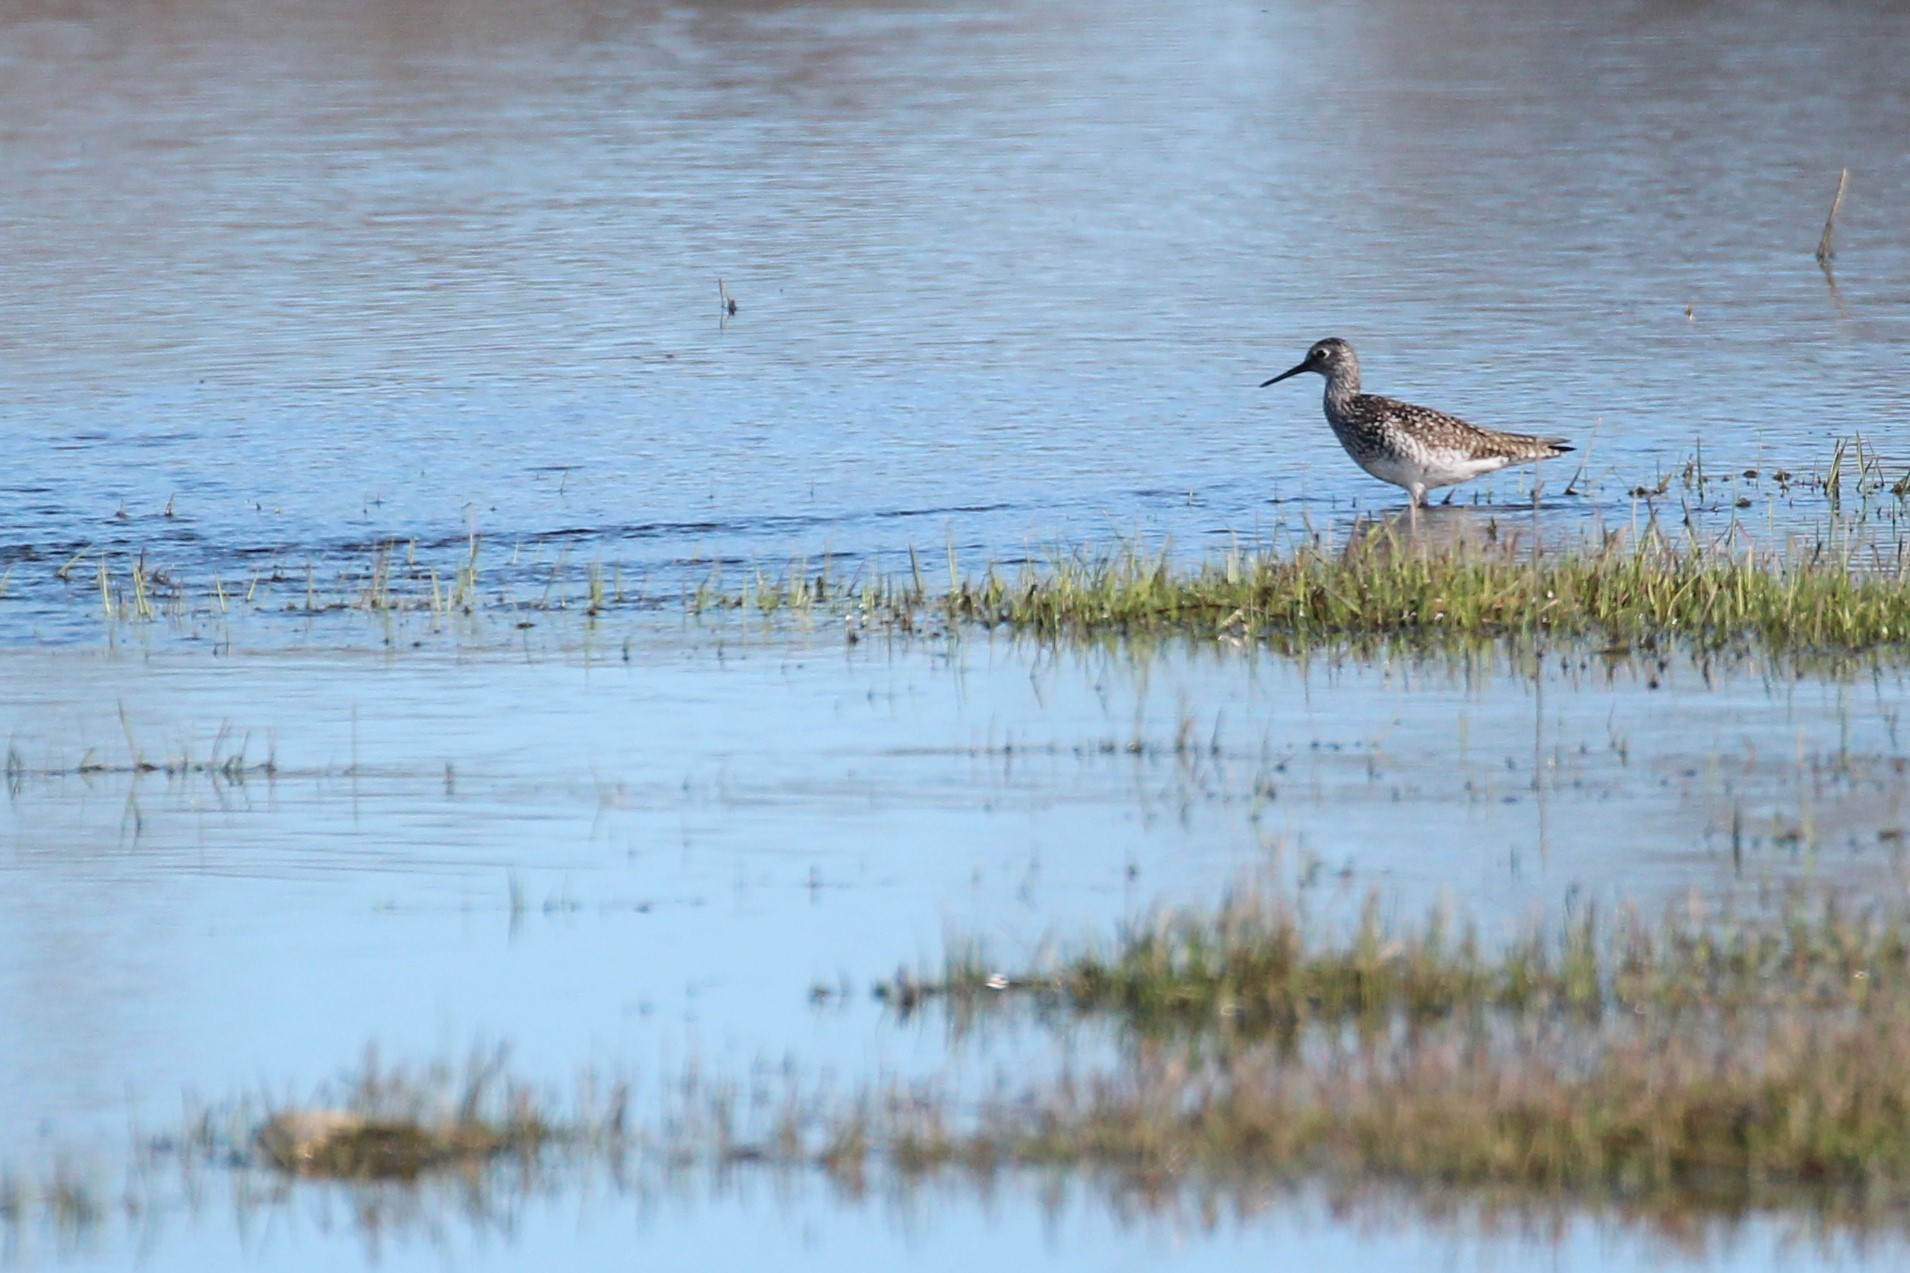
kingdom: Animalia
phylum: Chordata
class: Aves
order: Charadriiformes
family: Scolopacidae
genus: Tringa
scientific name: Tringa flavipes
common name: Lesser yellowlegs
